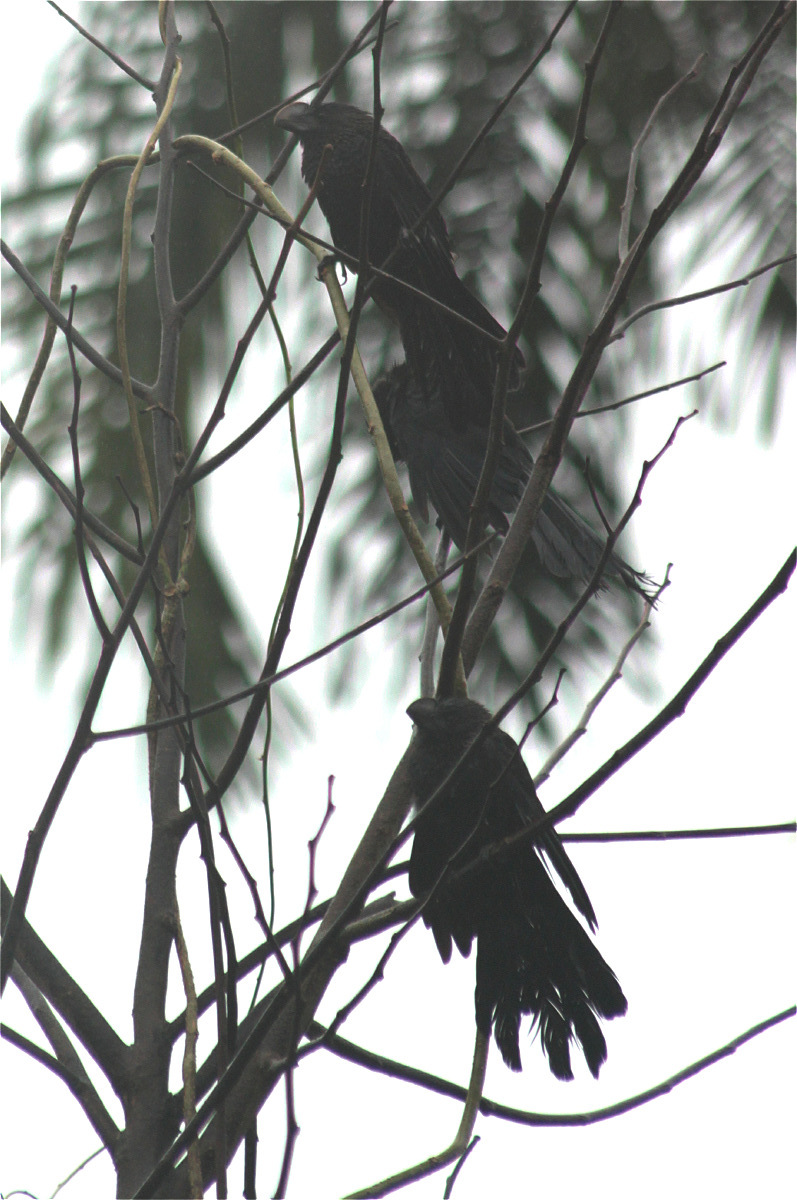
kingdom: Animalia
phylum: Chordata
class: Aves
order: Cuculiformes
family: Cuculidae
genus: Crotophaga
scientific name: Crotophaga ani
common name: Smooth-billed ani
